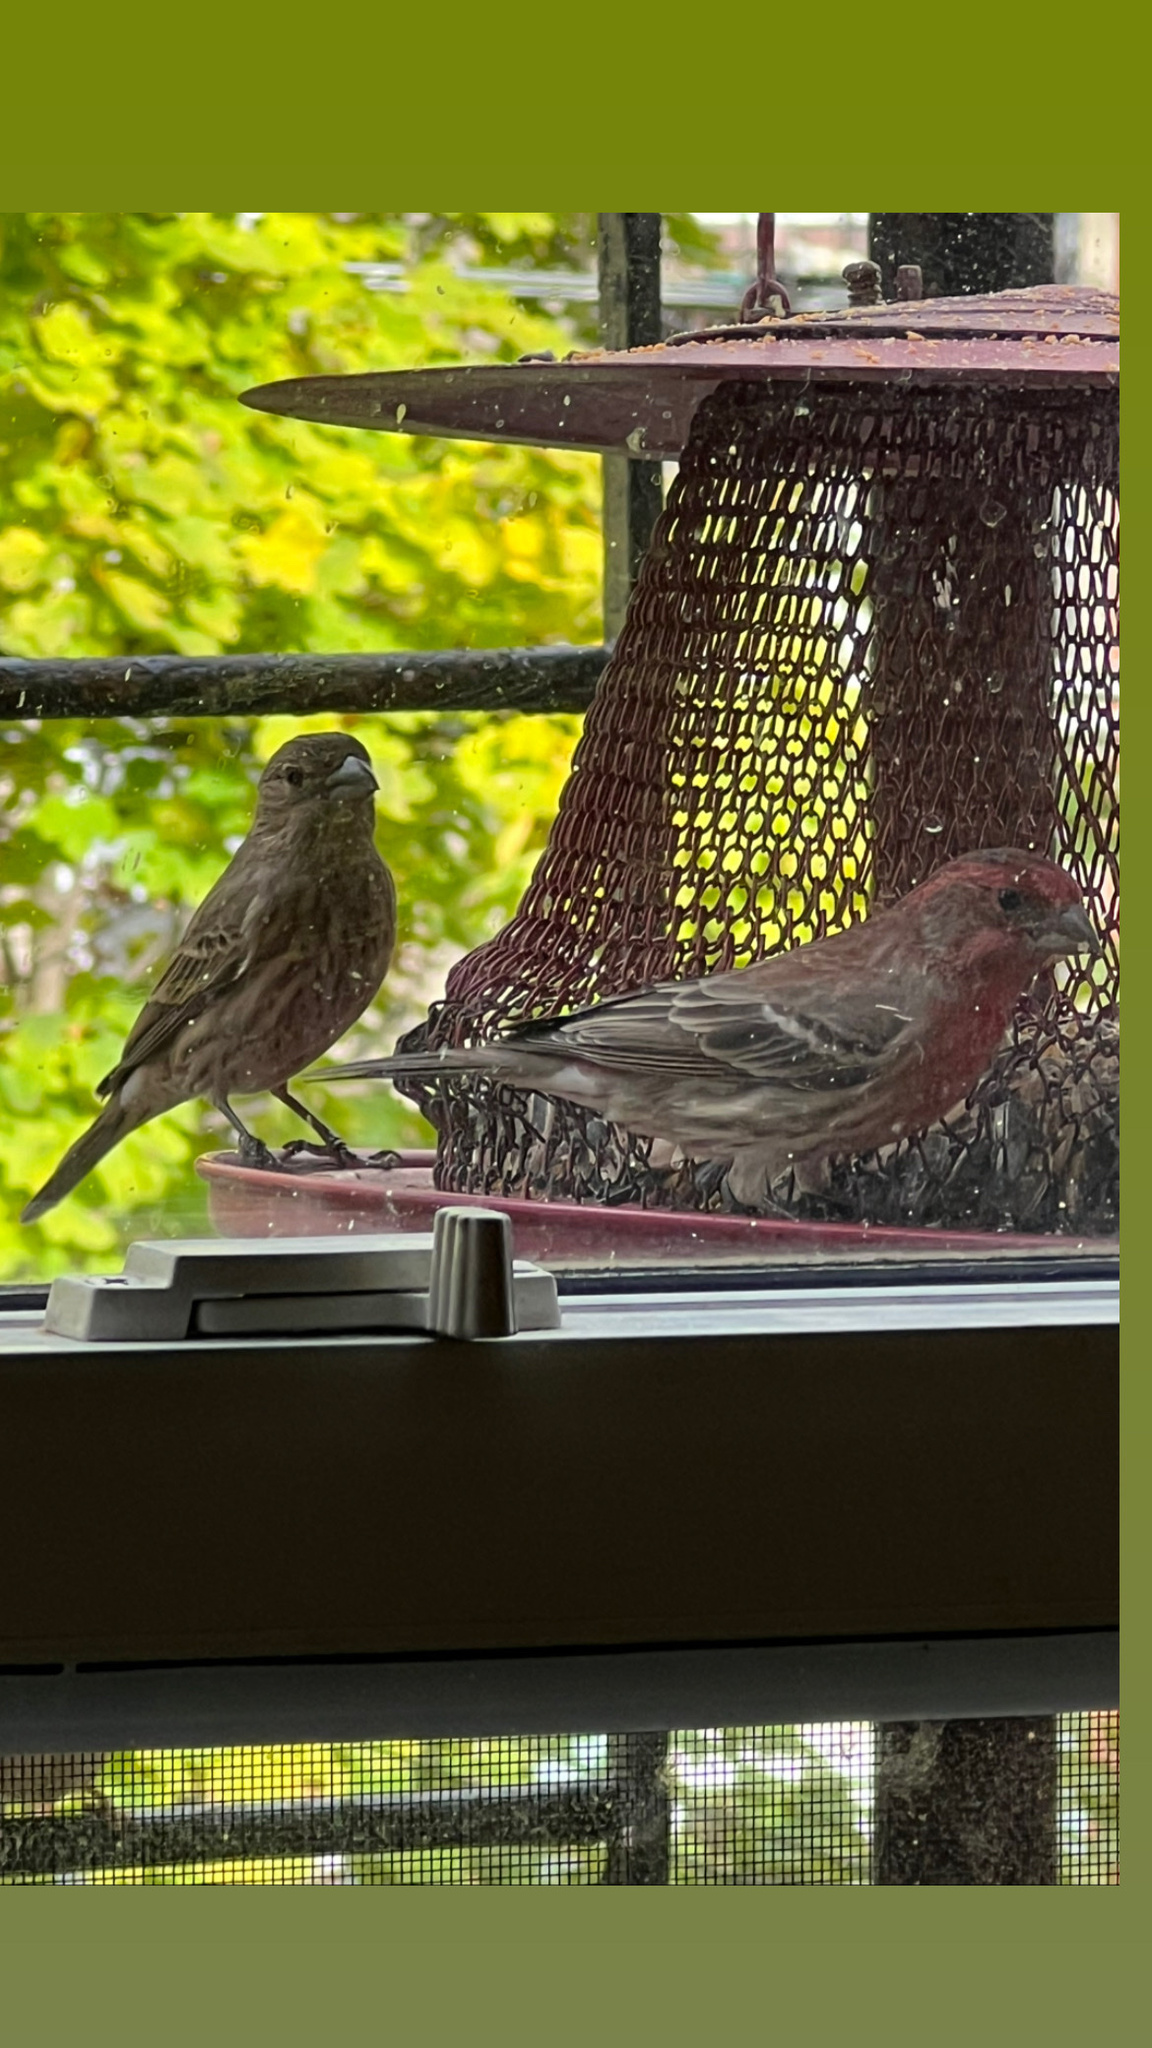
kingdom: Animalia
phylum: Chordata
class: Aves
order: Passeriformes
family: Fringillidae
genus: Haemorhous
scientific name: Haemorhous mexicanus
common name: House finch
